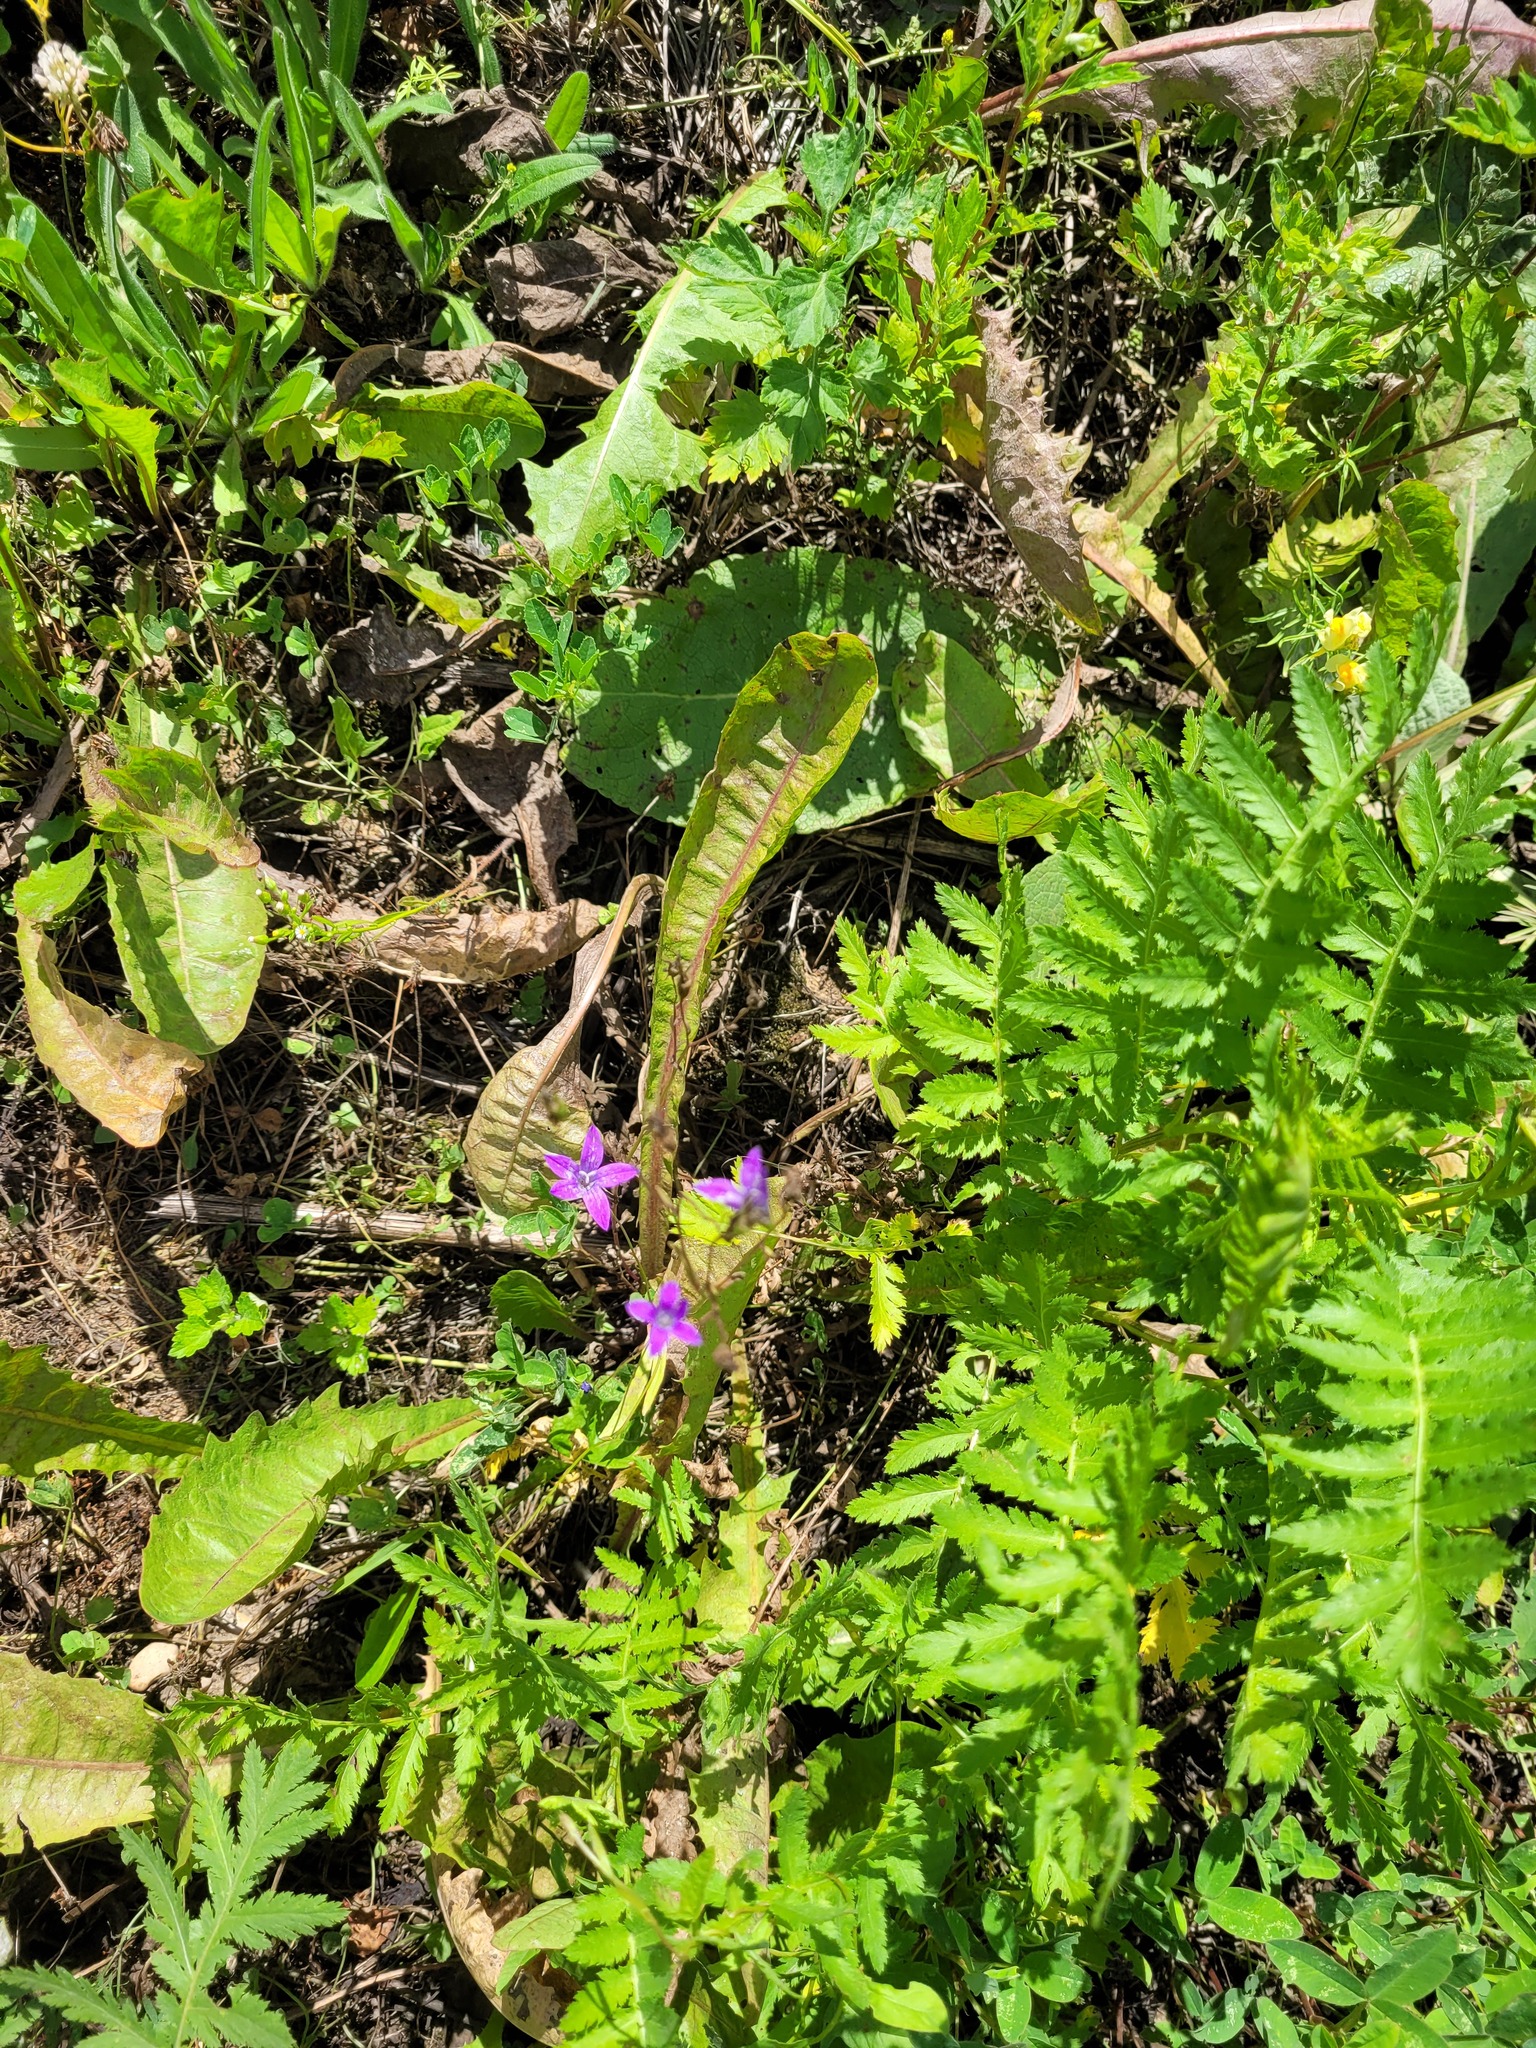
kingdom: Plantae
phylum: Tracheophyta
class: Magnoliopsida
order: Asterales
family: Campanulaceae
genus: Campanula
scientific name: Campanula patula
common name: Spreading bellflower
